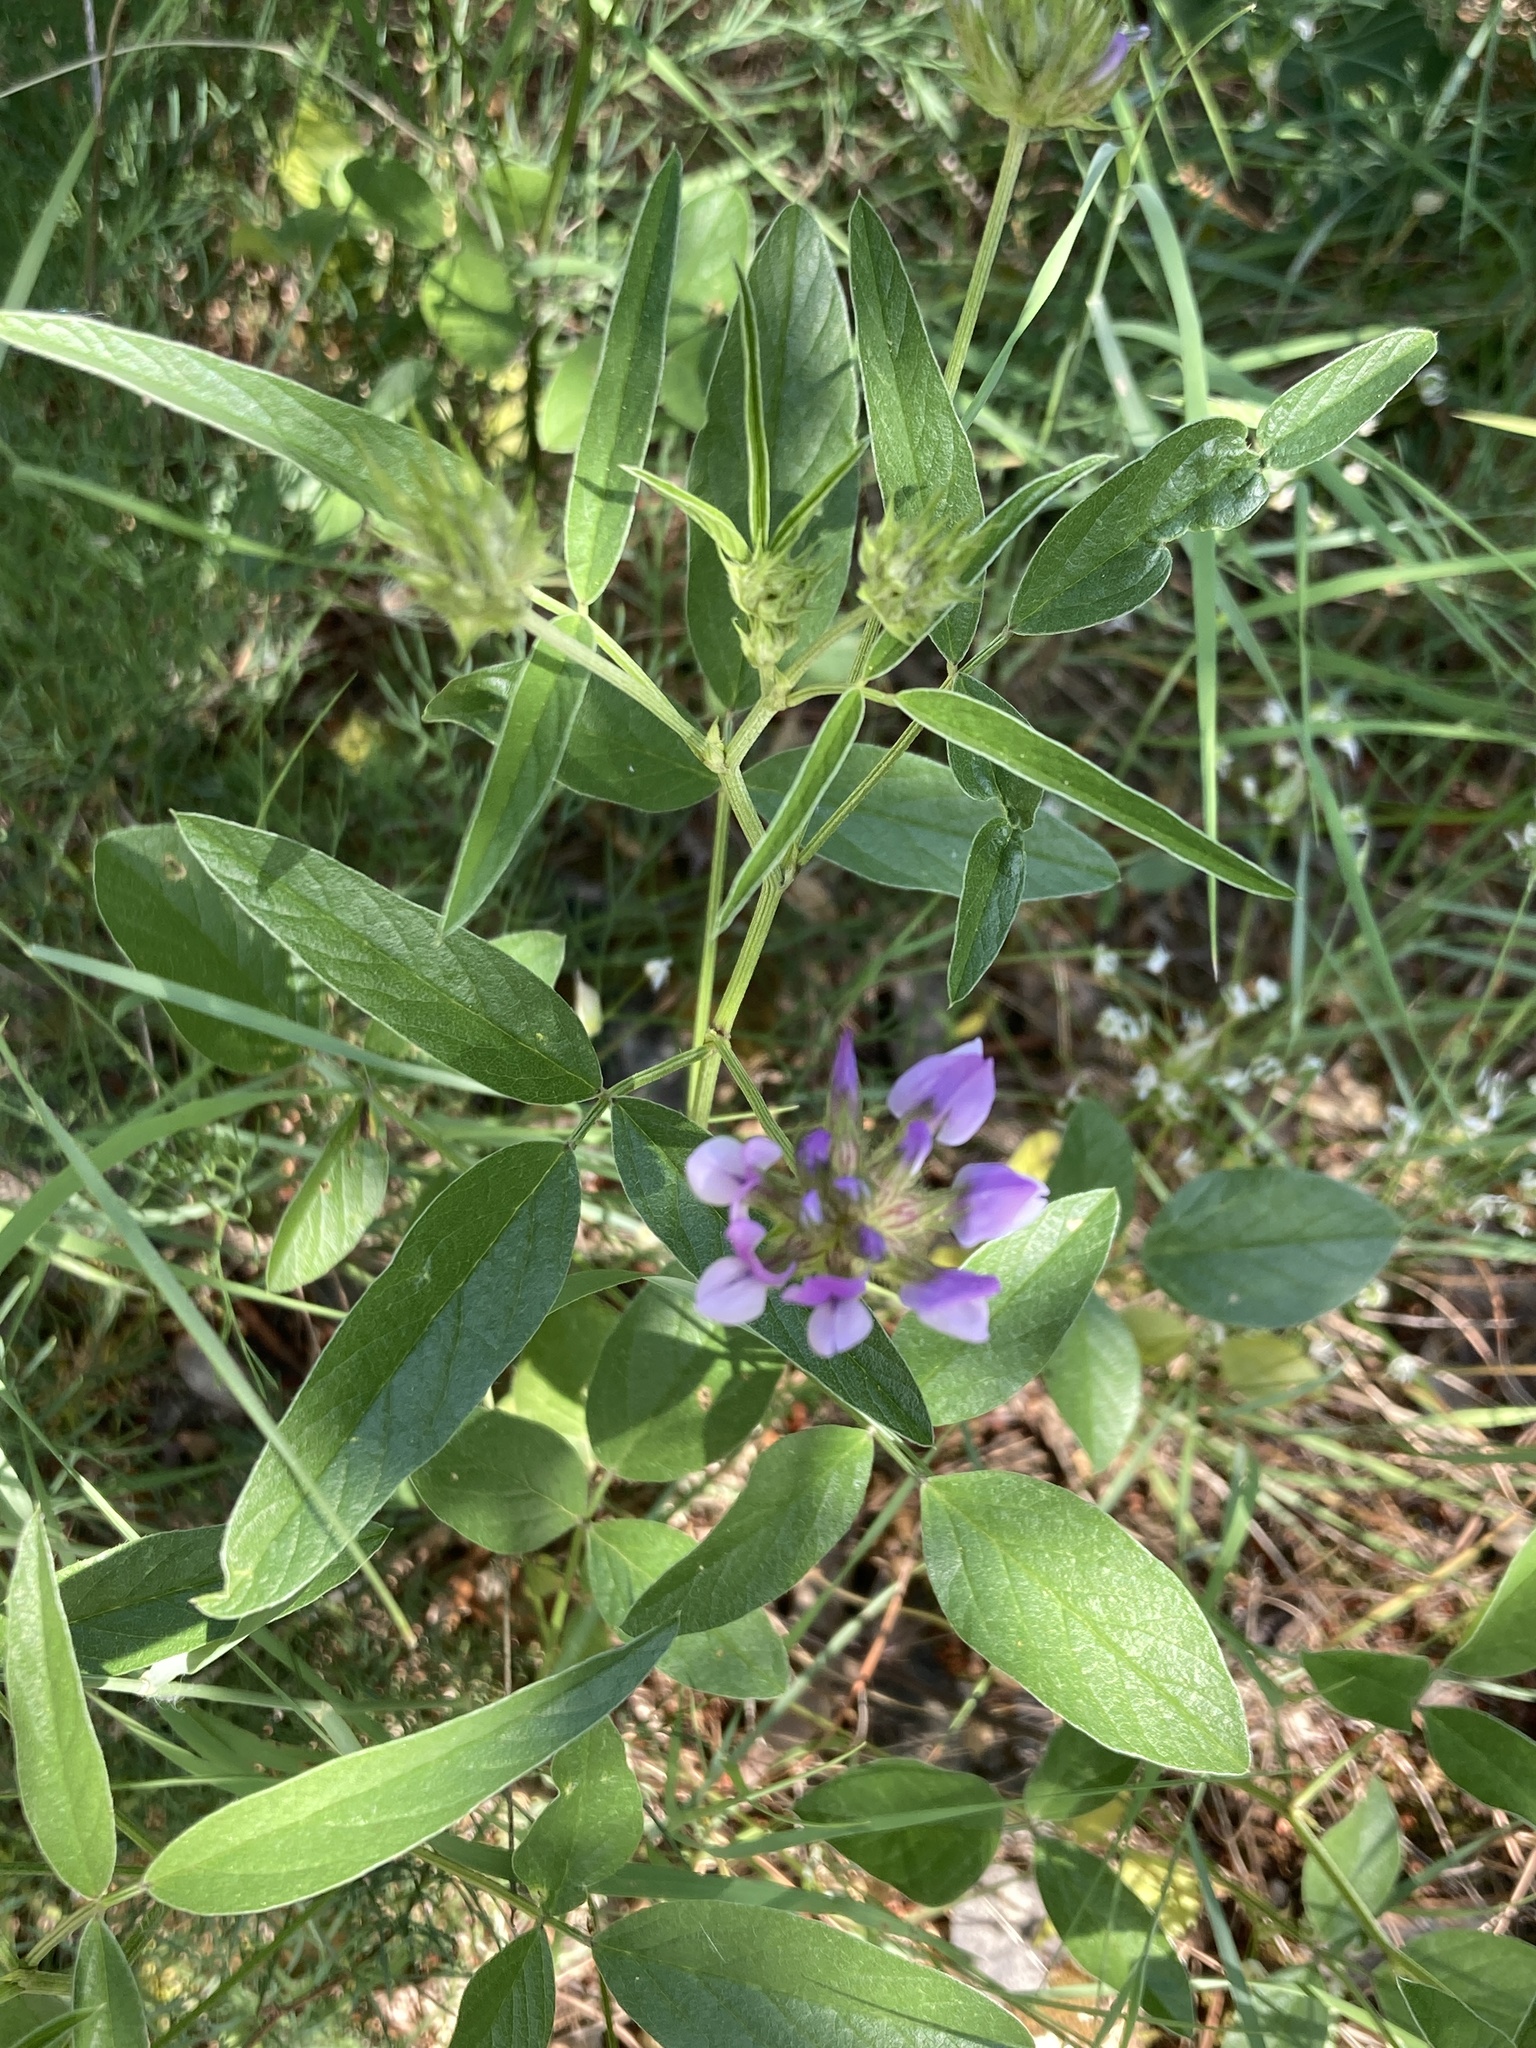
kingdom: Plantae
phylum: Tracheophyta
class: Magnoliopsida
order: Fabales
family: Fabaceae
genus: Bituminaria
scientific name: Bituminaria bituminosa
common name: Arabian pea
